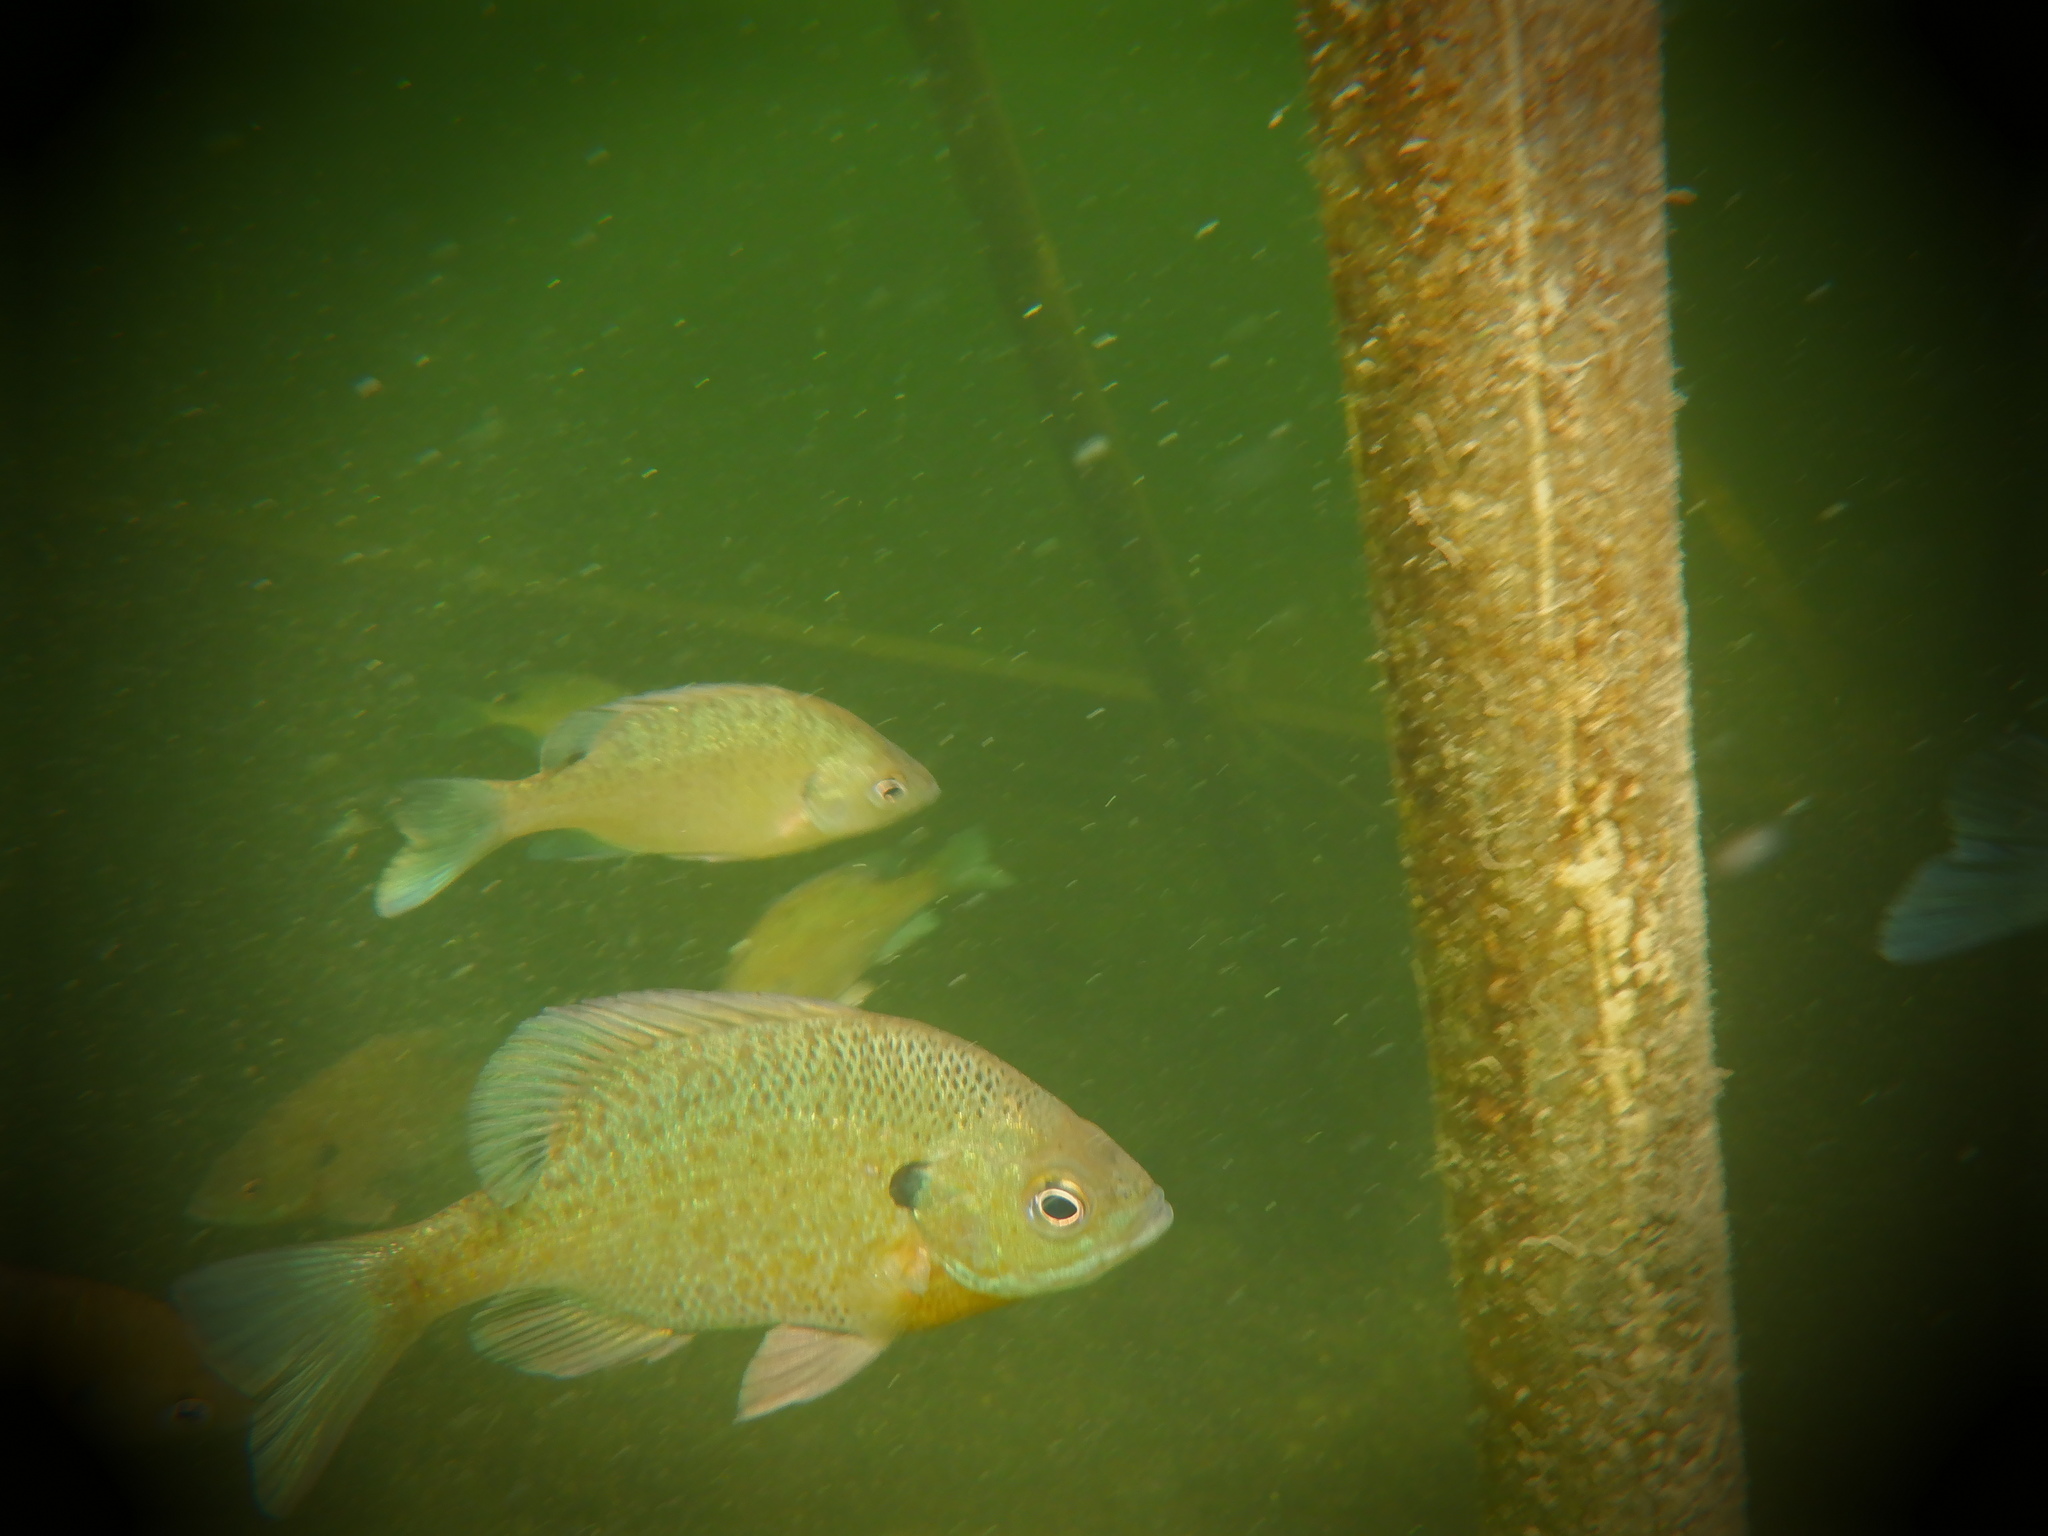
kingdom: Animalia
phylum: Chordata
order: Perciformes
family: Centrarchidae
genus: Lepomis
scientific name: Lepomis macrochirus
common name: Bluegill
